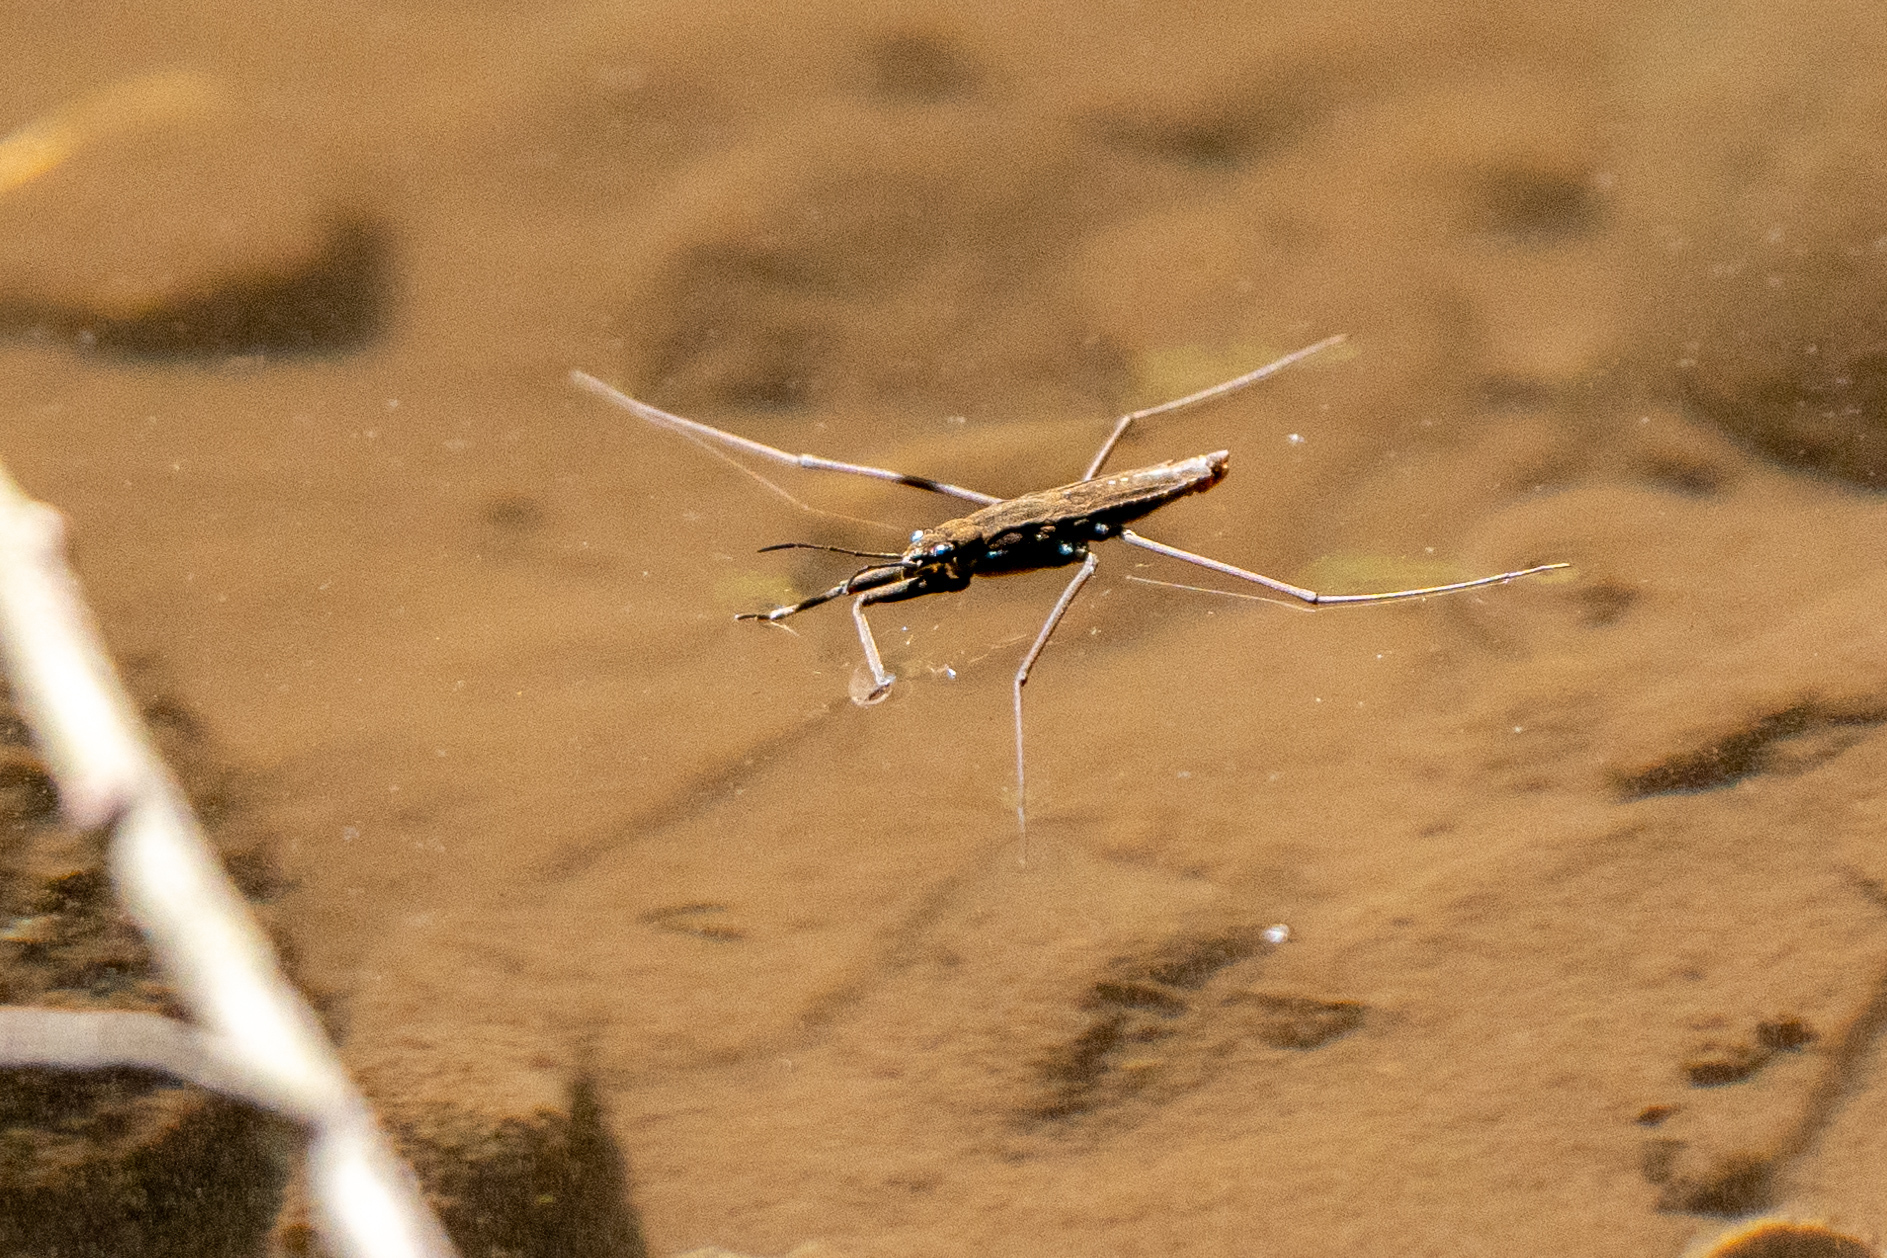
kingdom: Animalia
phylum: Arthropoda
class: Insecta
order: Hemiptera
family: Gerridae
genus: Aquarius
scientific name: Aquarius remigis
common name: Common water strider
